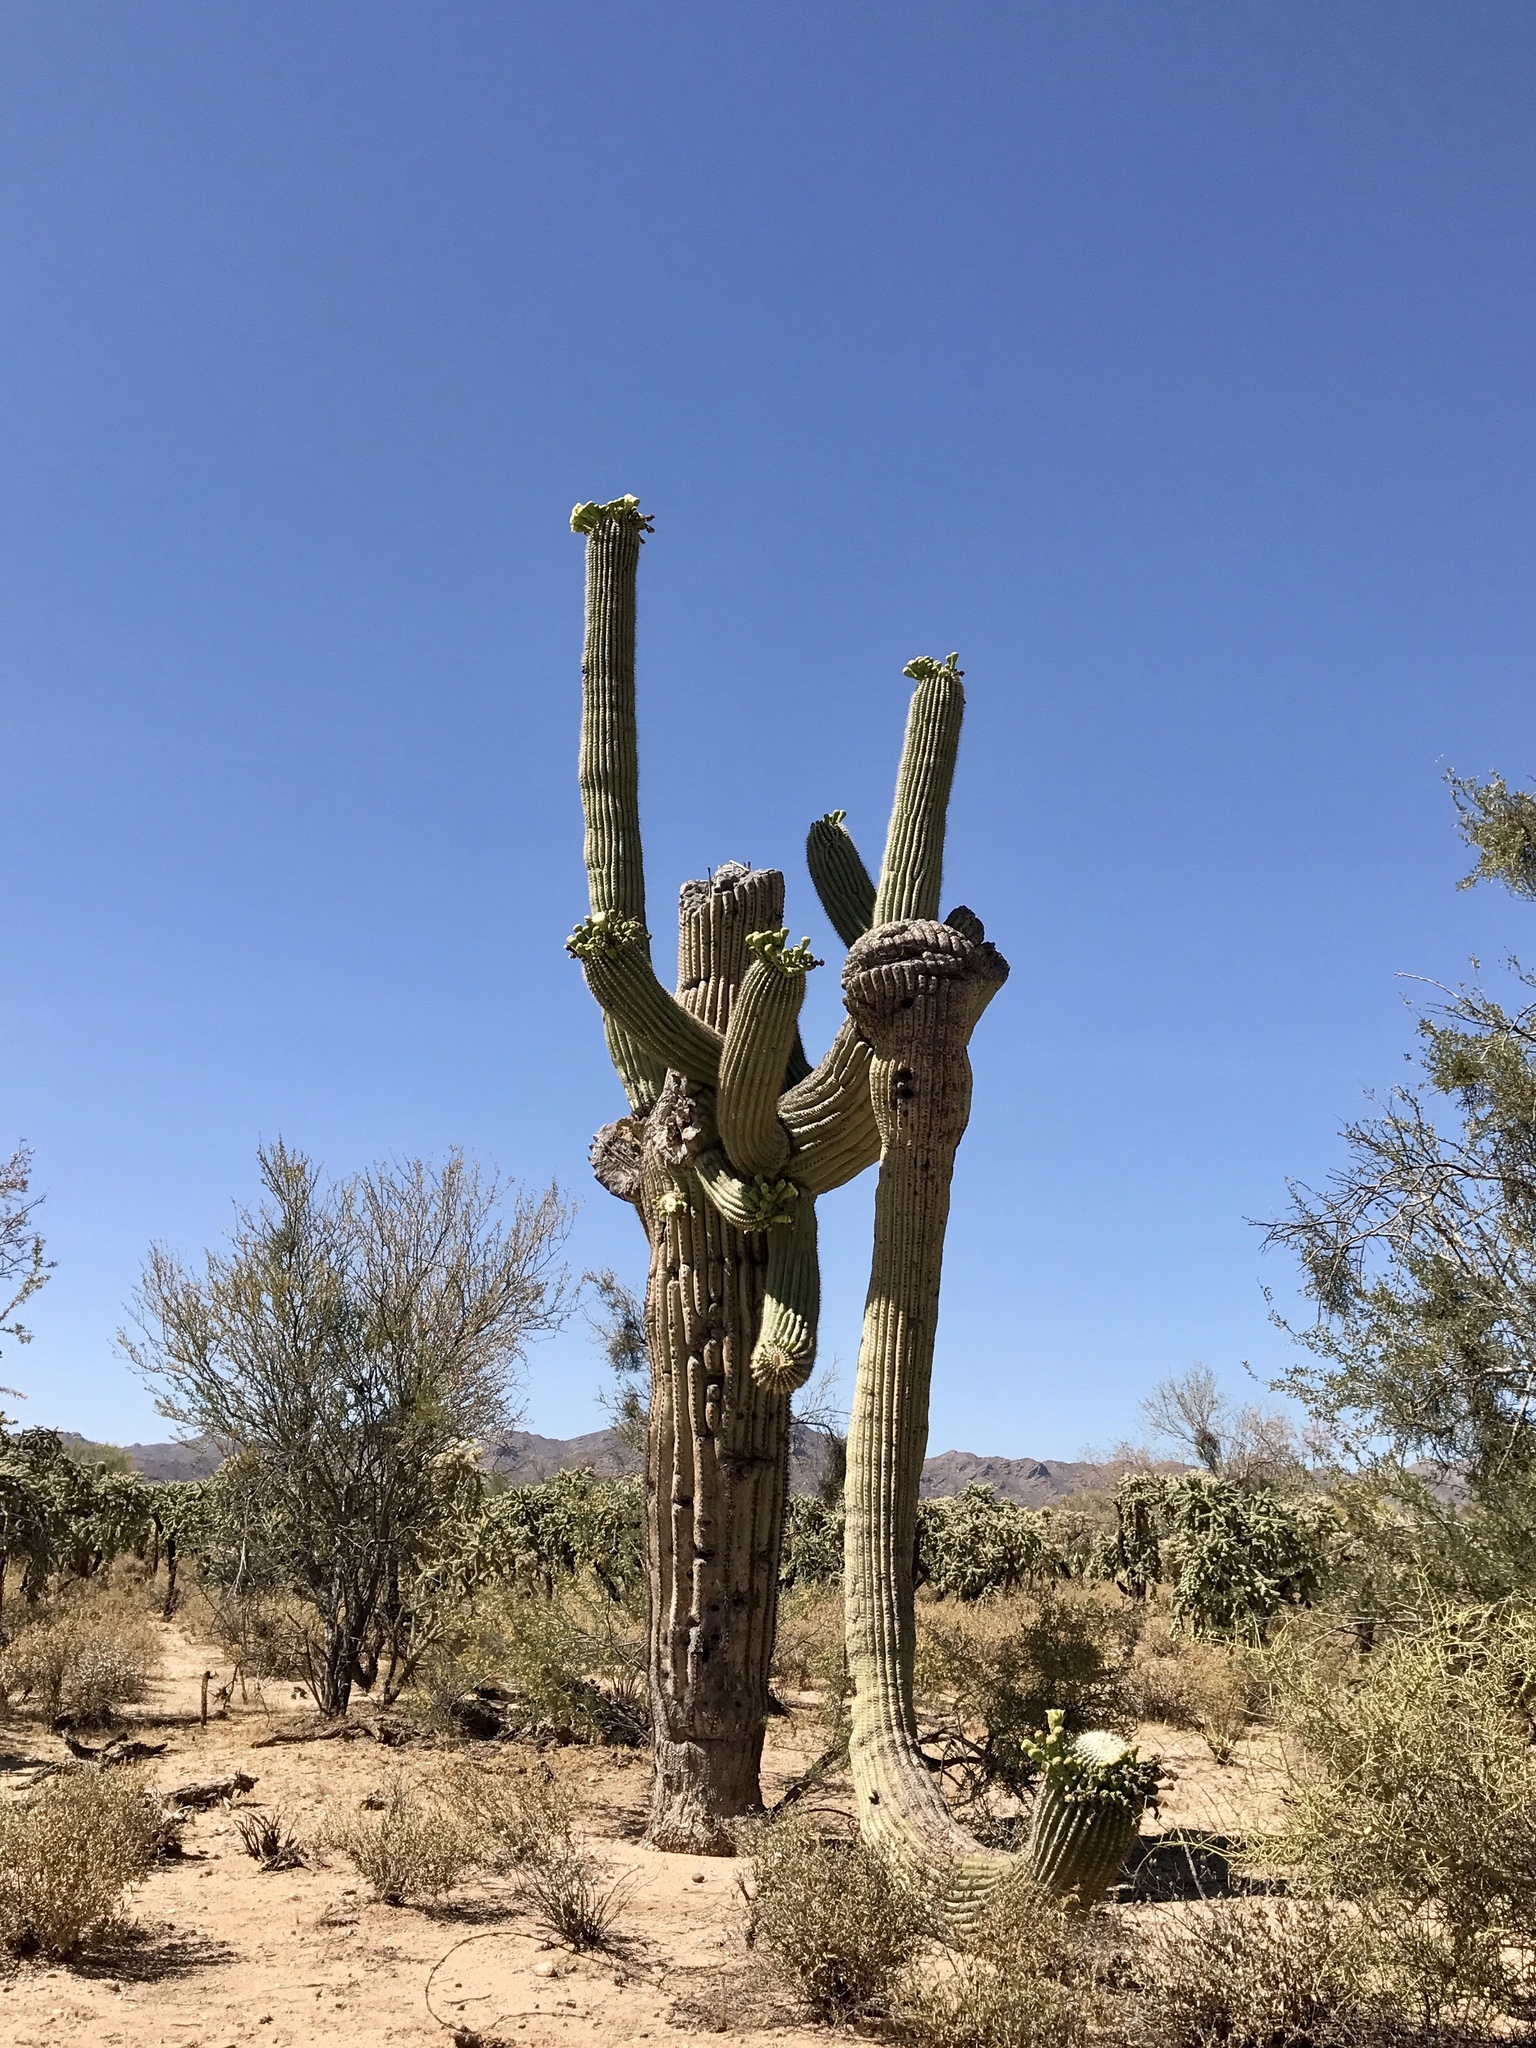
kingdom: Plantae
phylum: Tracheophyta
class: Magnoliopsida
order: Caryophyllales
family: Cactaceae
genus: Carnegiea
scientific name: Carnegiea gigantea
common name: Saguaro
